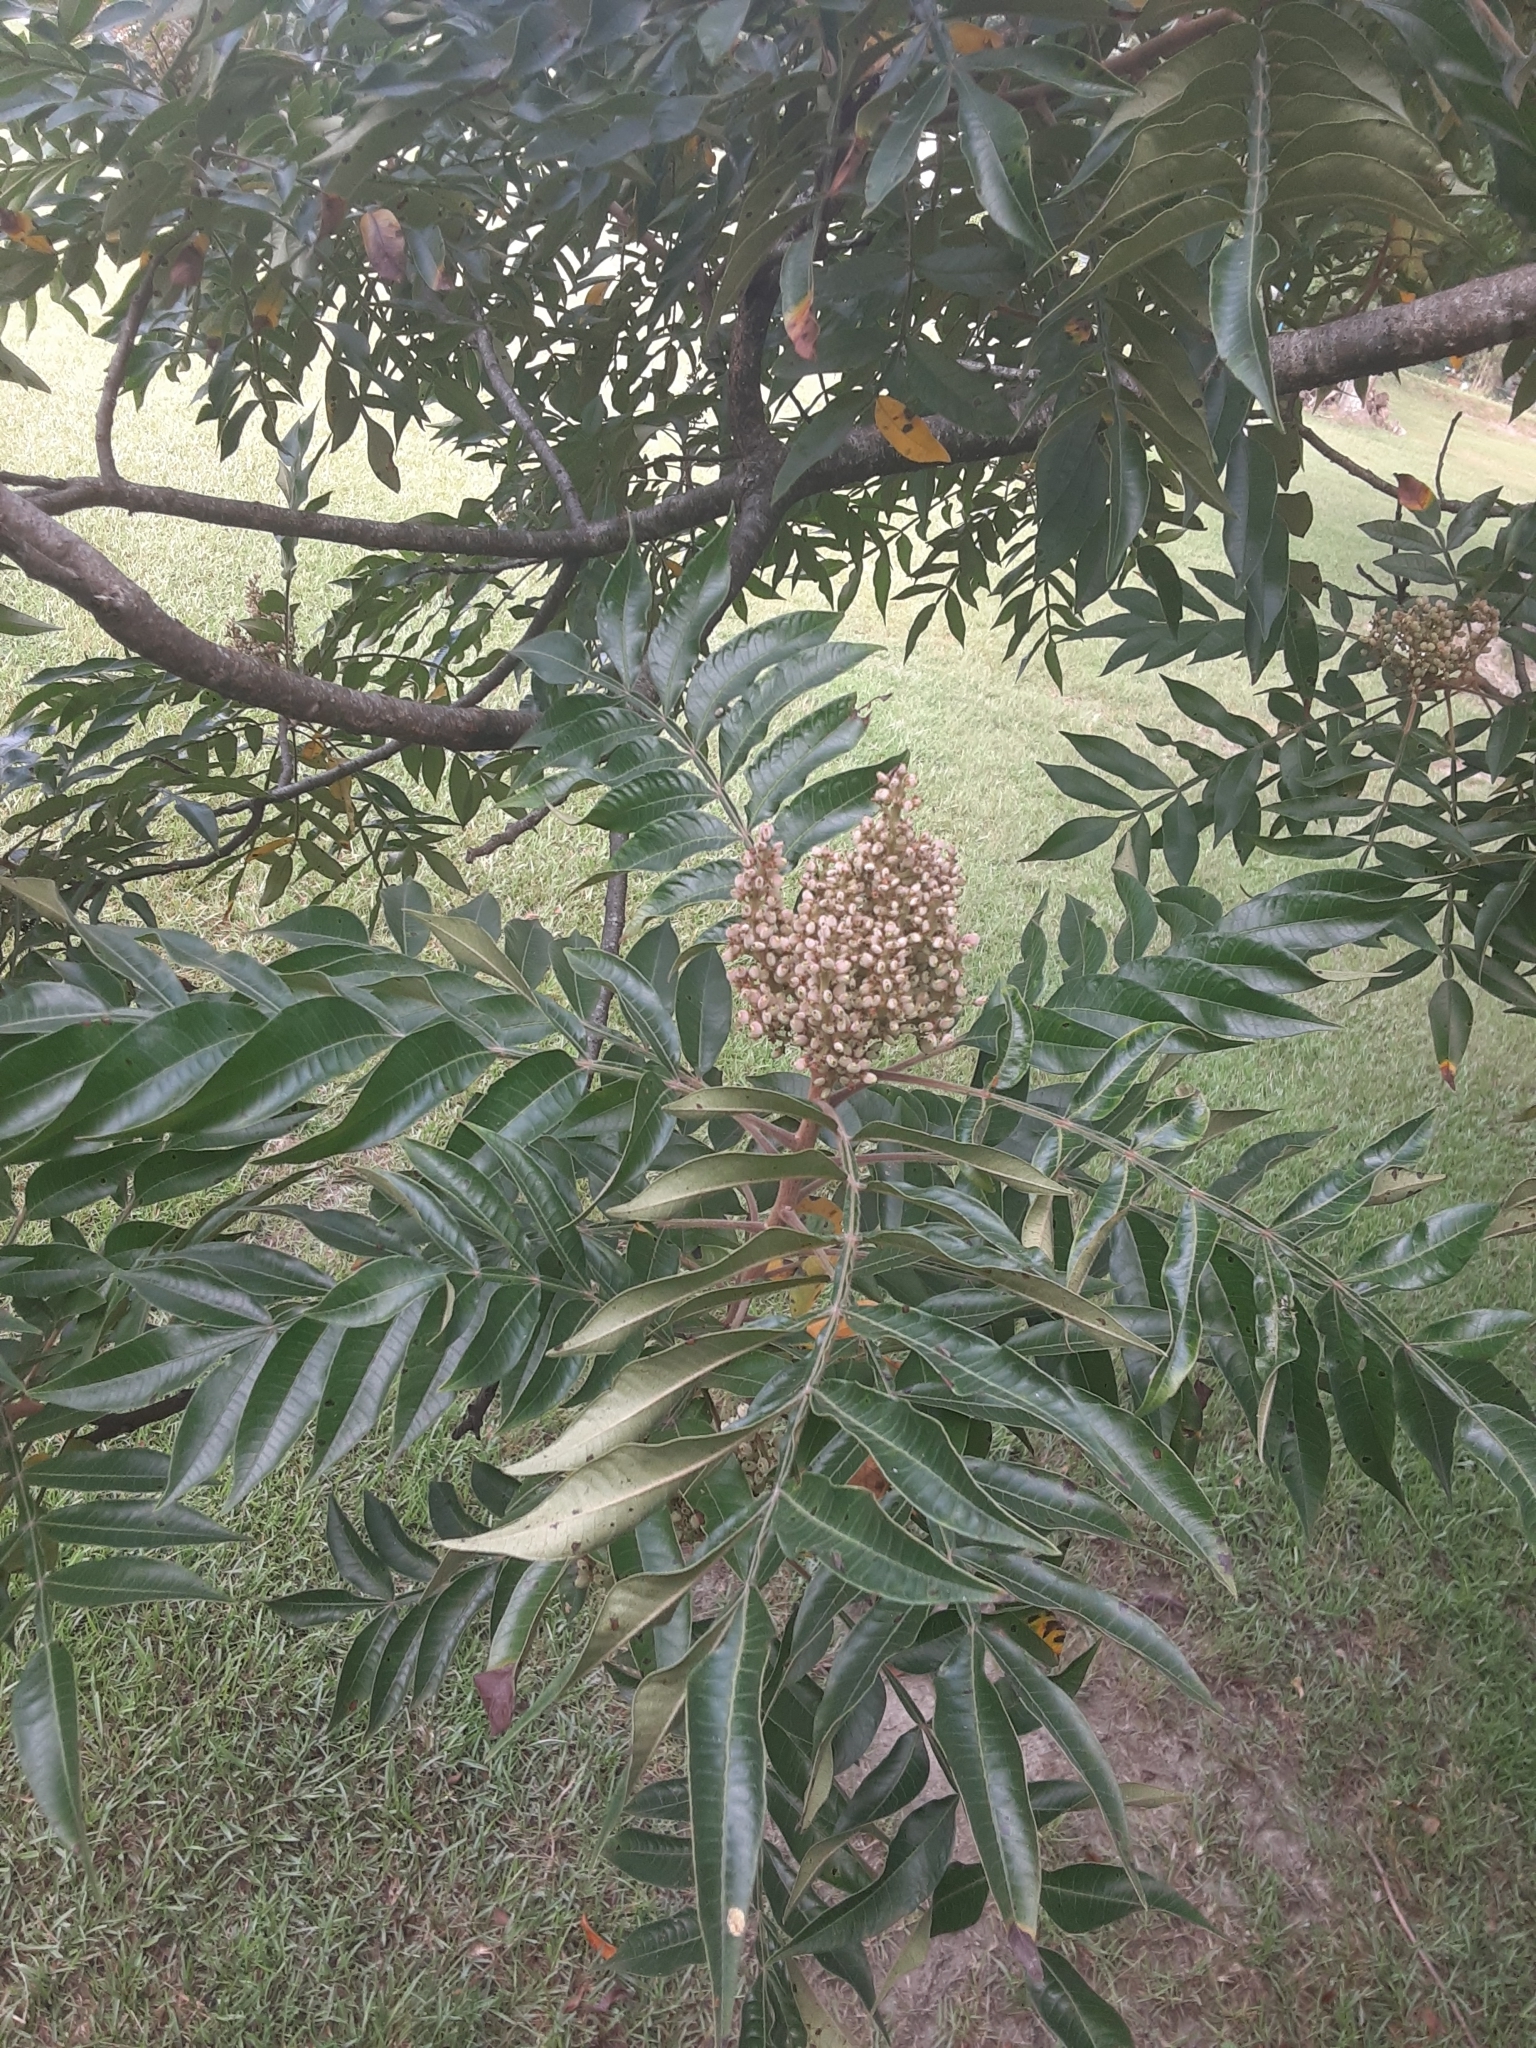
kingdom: Plantae
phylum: Tracheophyta
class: Magnoliopsida
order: Sapindales
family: Anacardiaceae
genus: Rhus
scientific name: Rhus copallina
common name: Shining sumac
